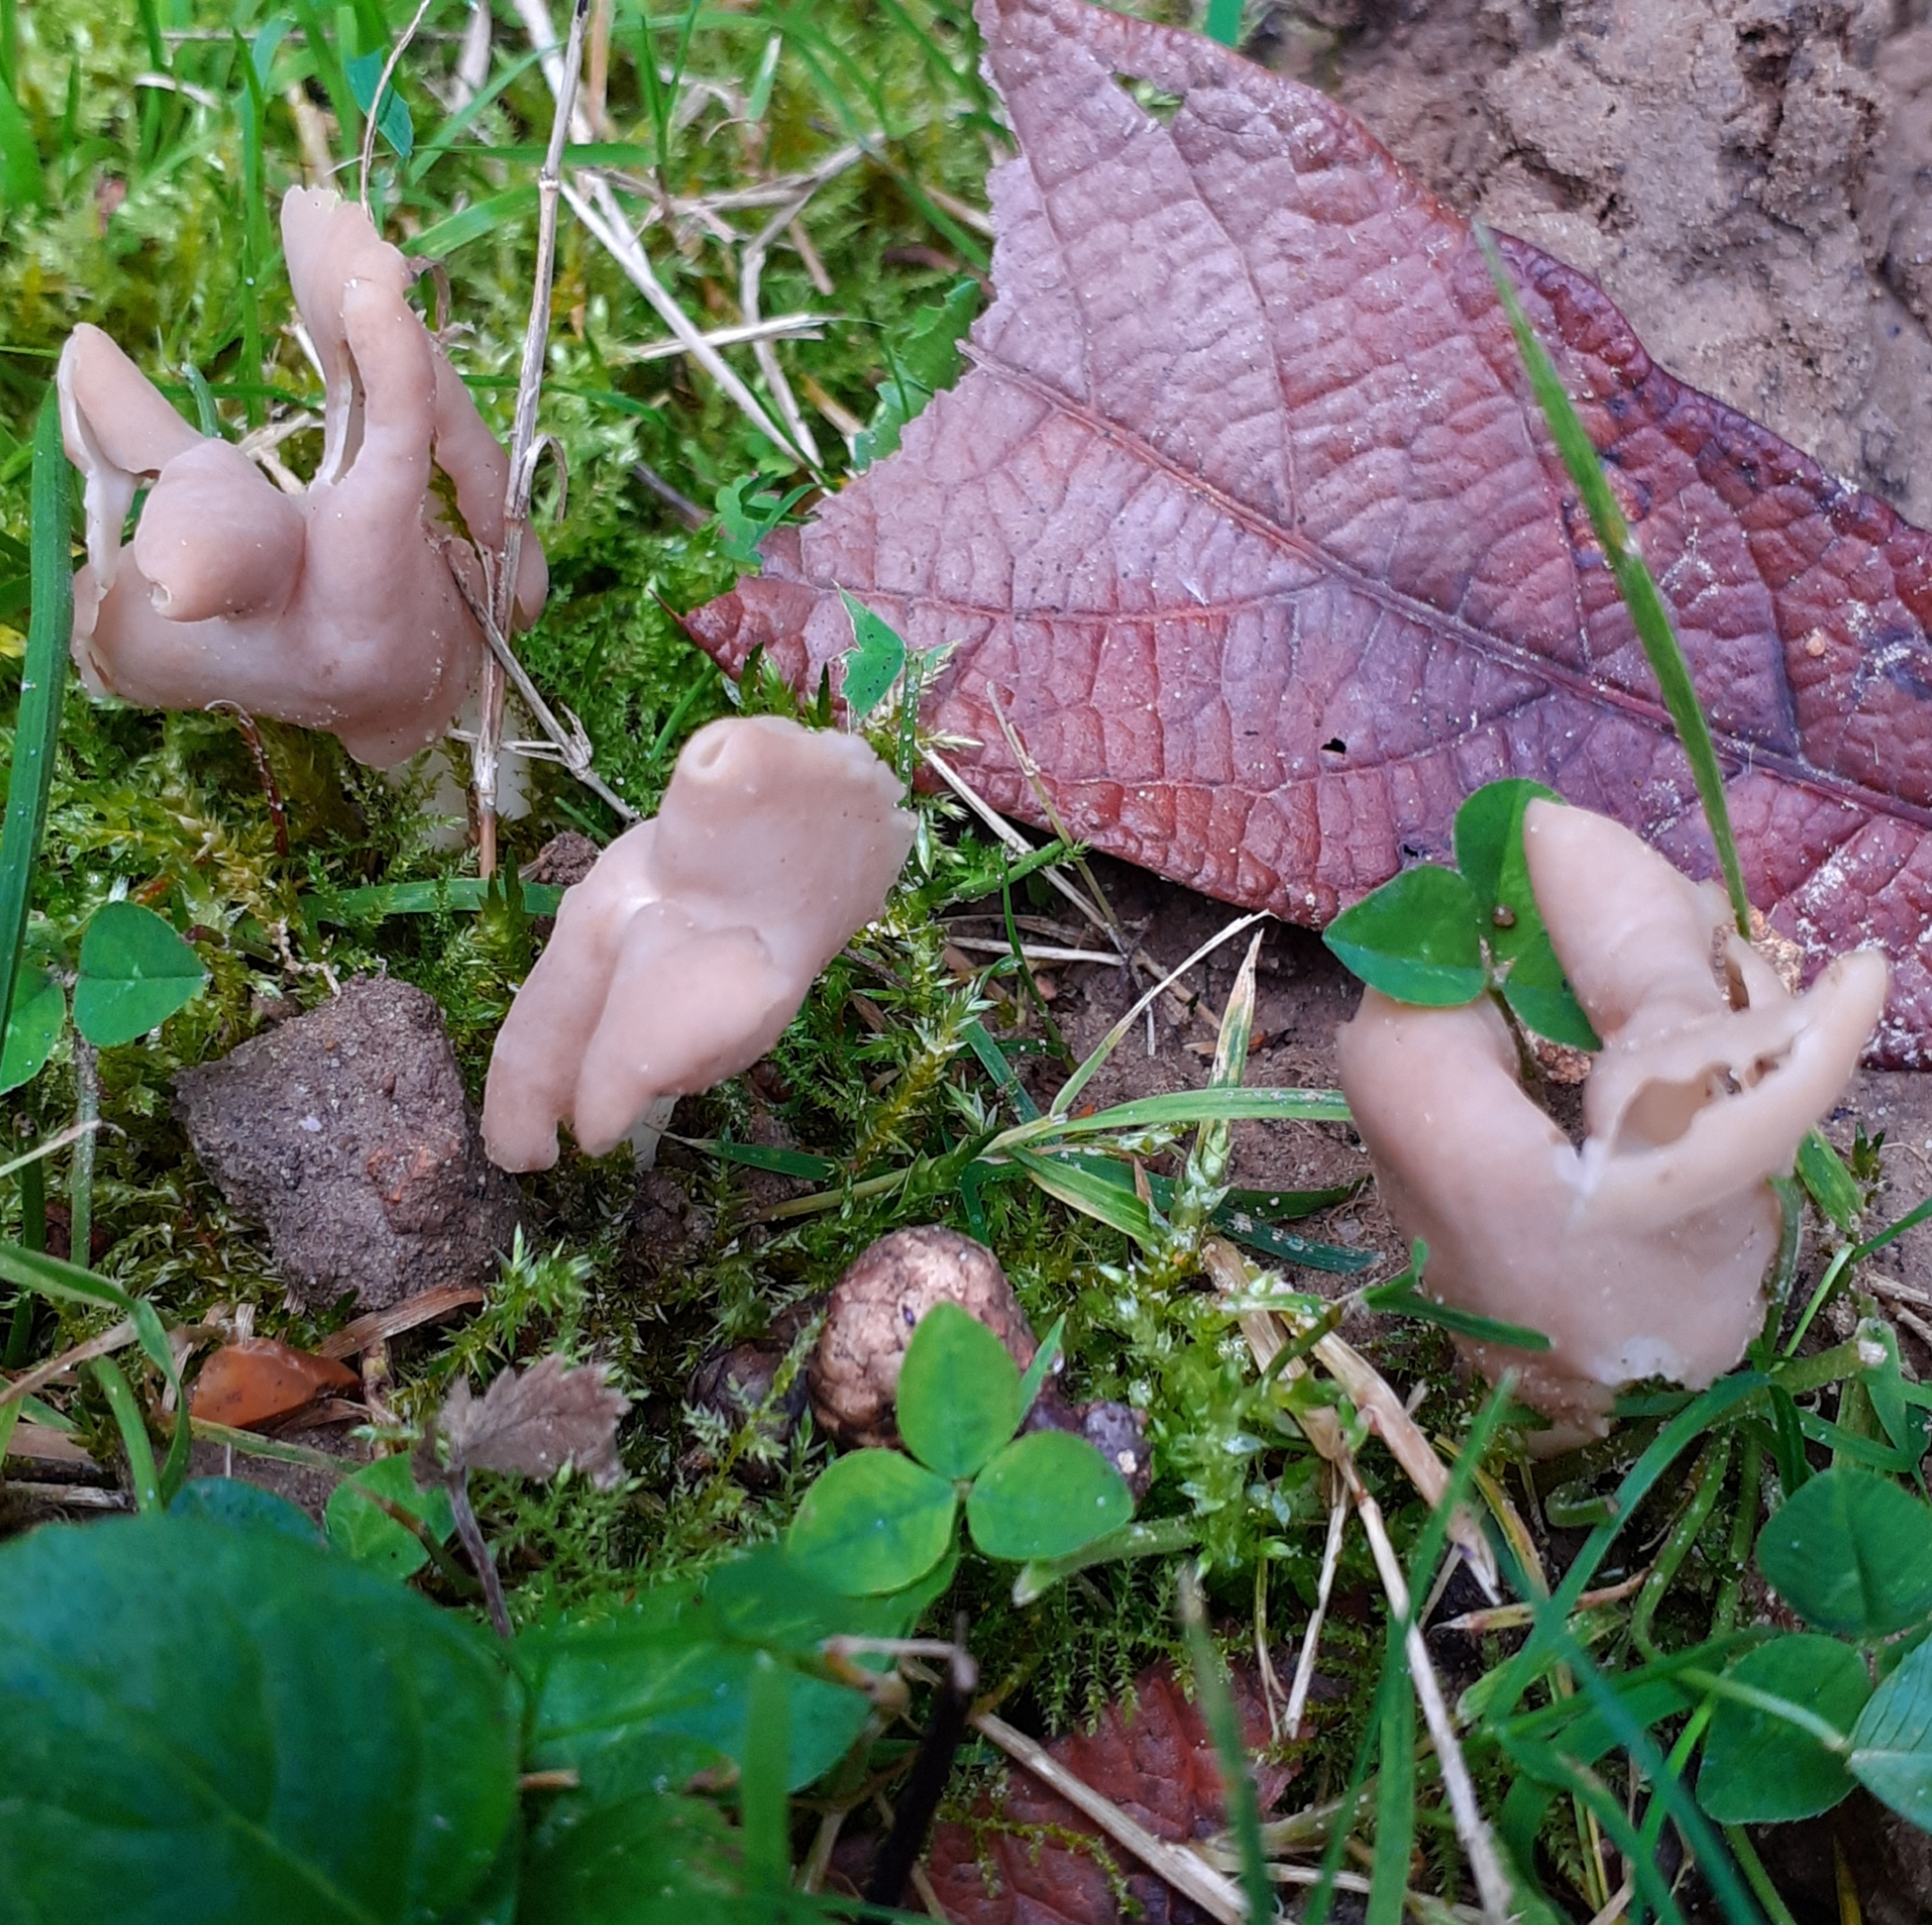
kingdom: Fungi
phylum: Ascomycota
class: Pezizomycetes
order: Pezizales
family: Helvellaceae
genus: Helvella
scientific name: Helvella
